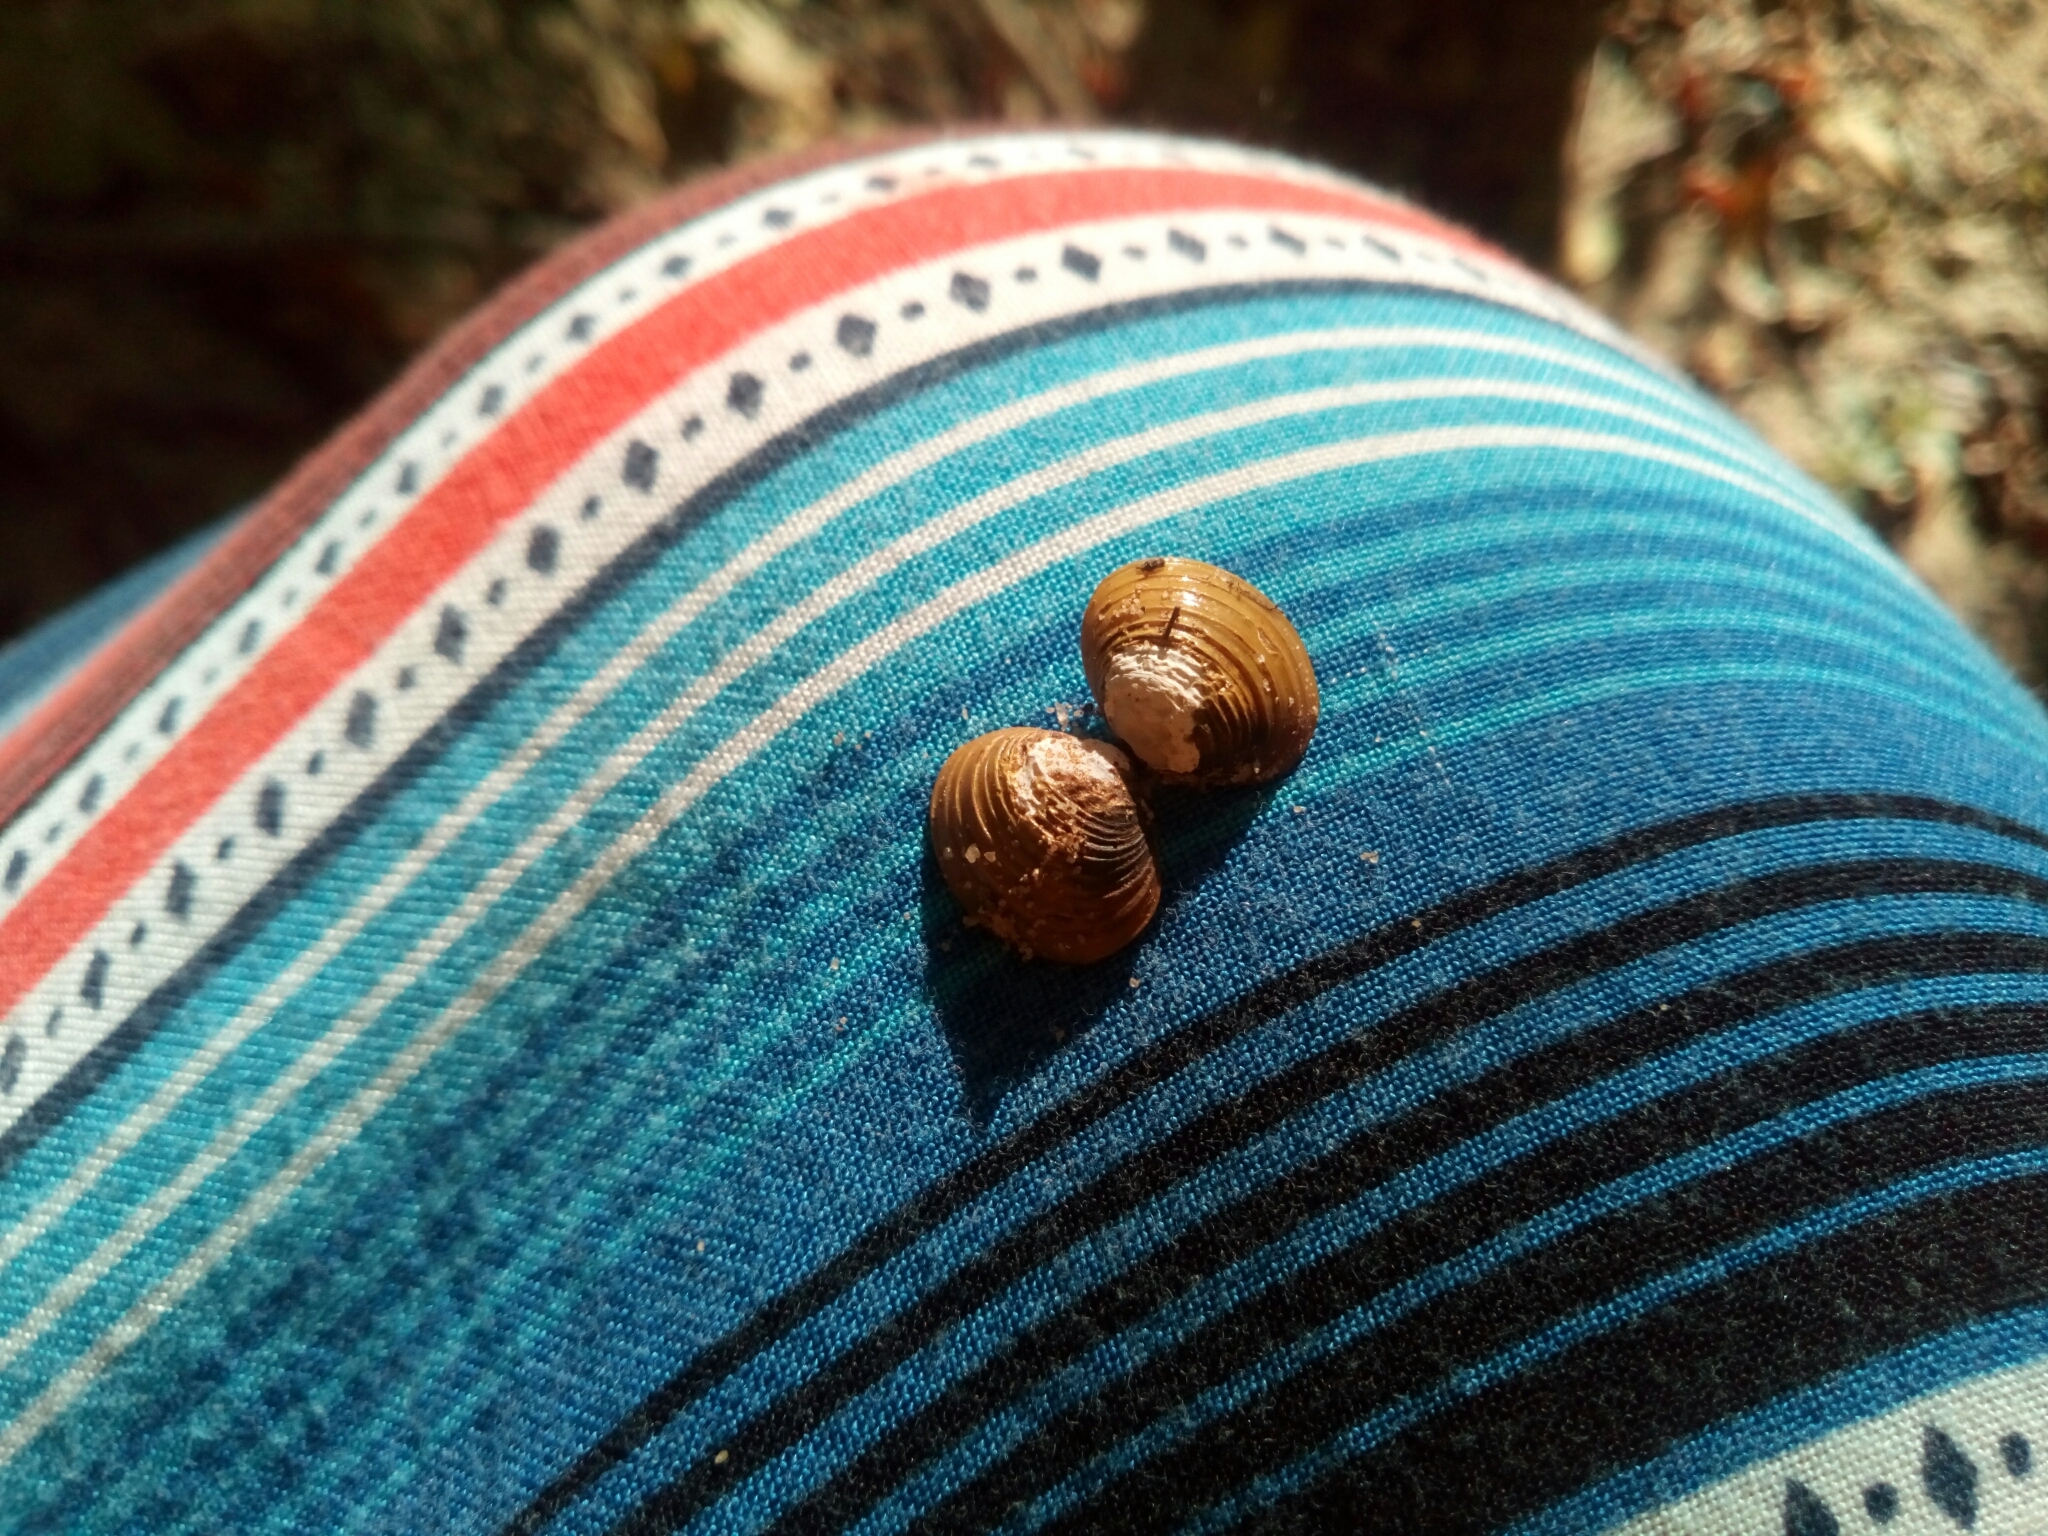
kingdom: Animalia
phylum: Mollusca
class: Bivalvia
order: Venerida
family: Cyrenidae
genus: Corbicula
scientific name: Corbicula fluminea
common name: Asian clam
